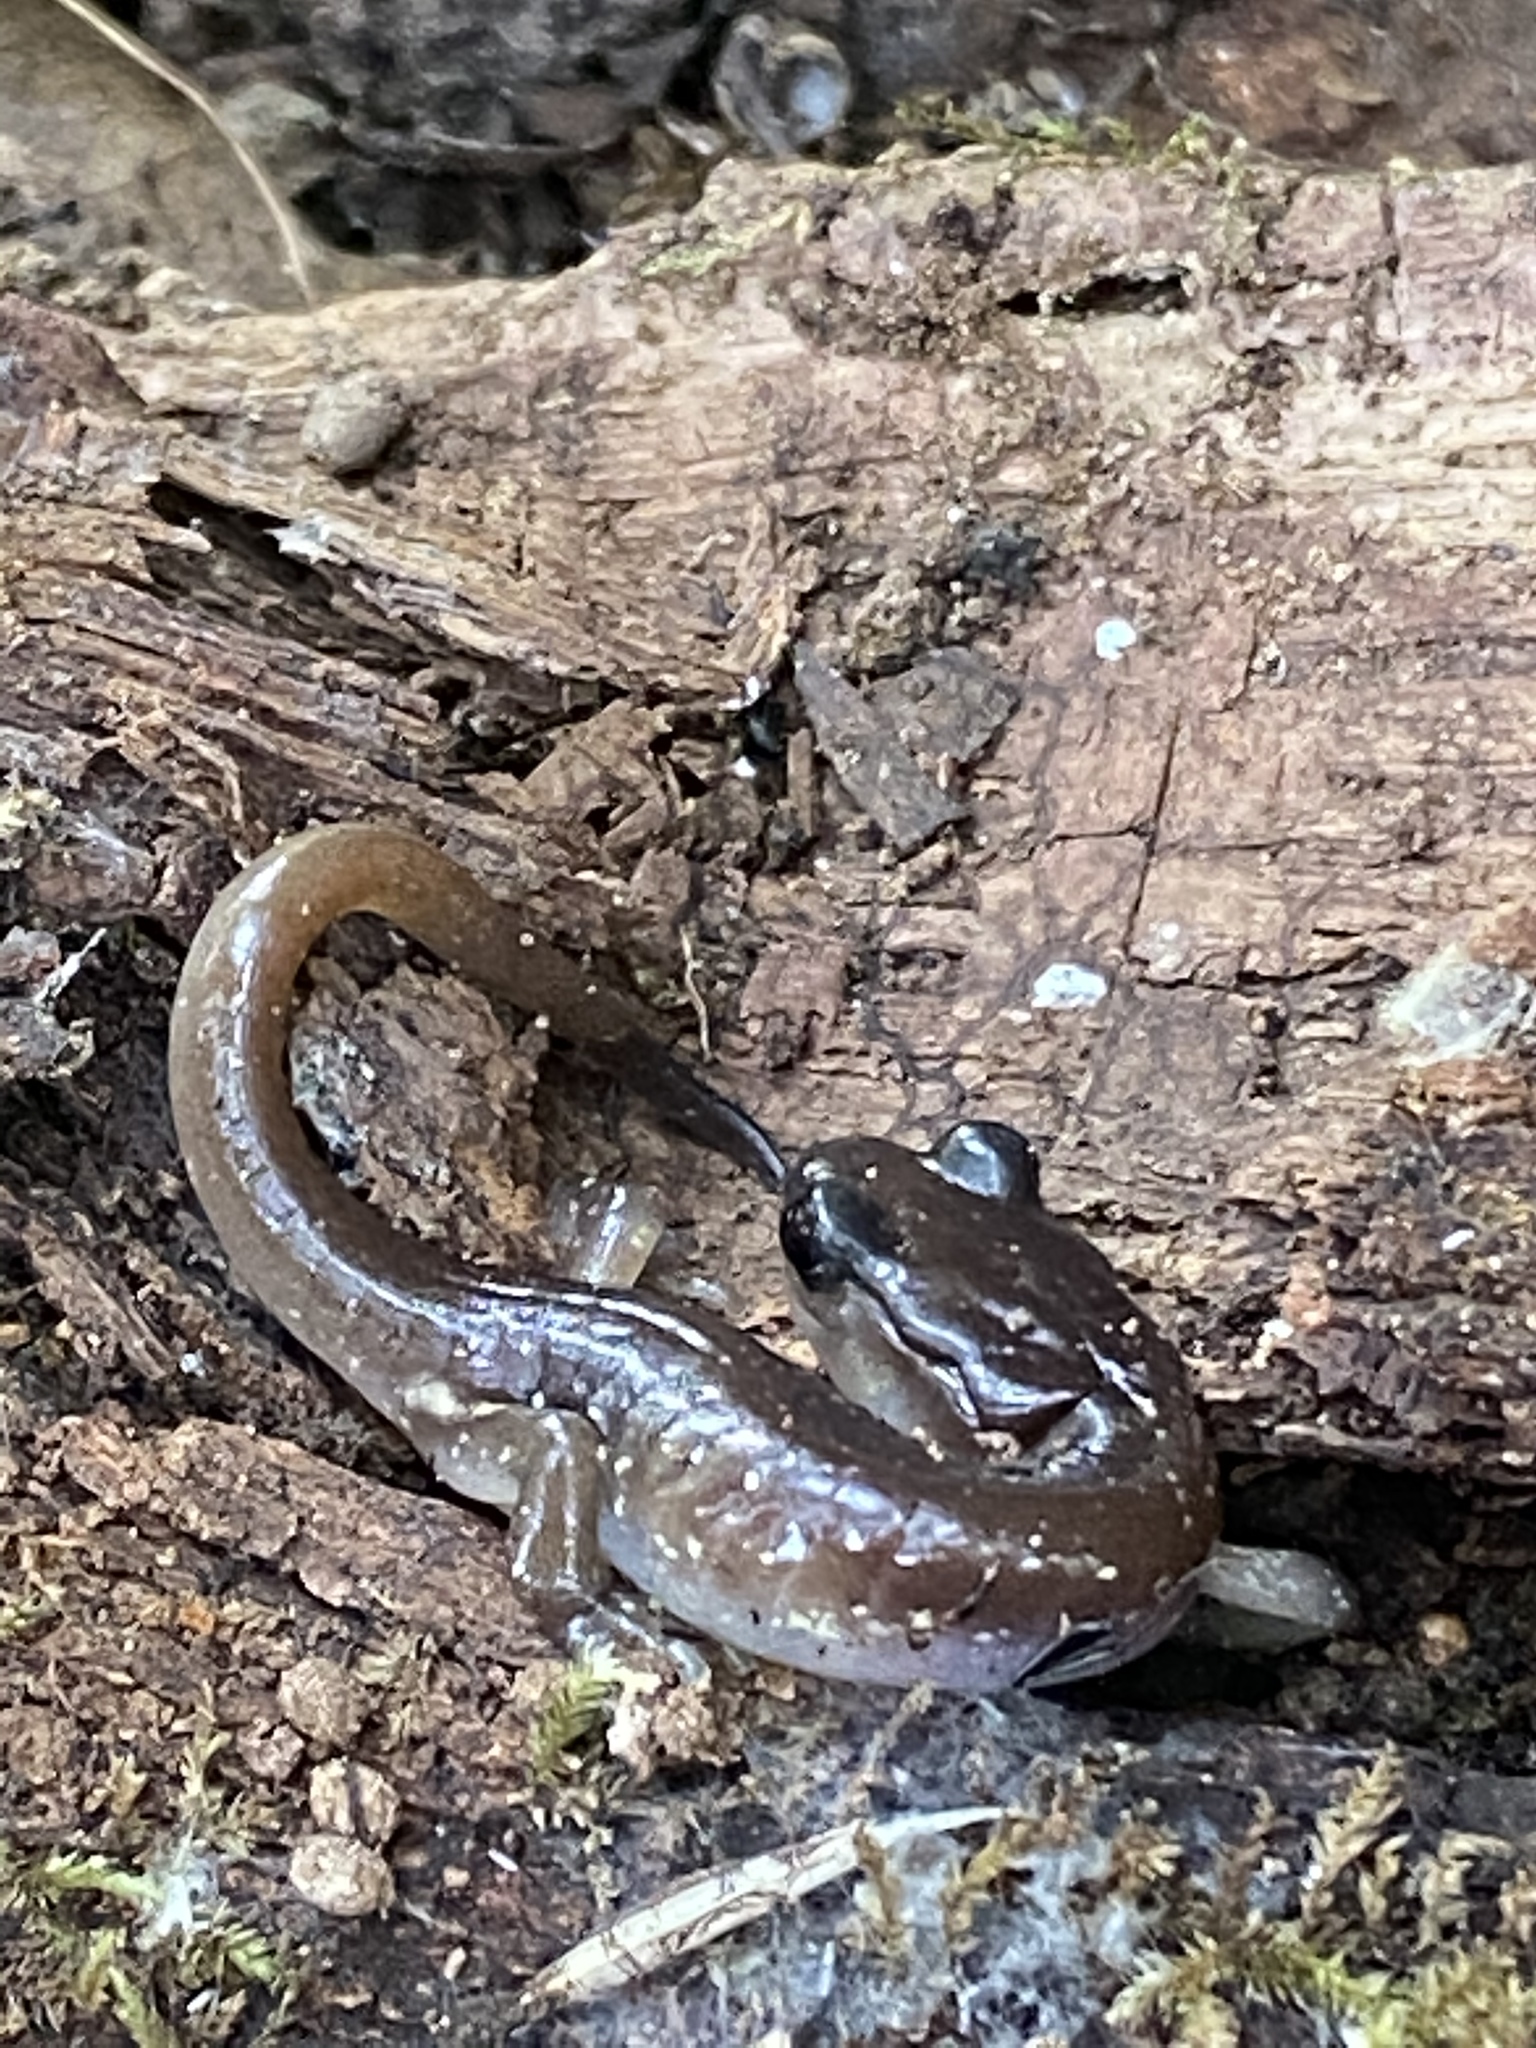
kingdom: Animalia
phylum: Chordata
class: Amphibia
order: Caudata
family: Plethodontidae
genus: Aneides
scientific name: Aneides lugubris
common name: Arboreal salamander
